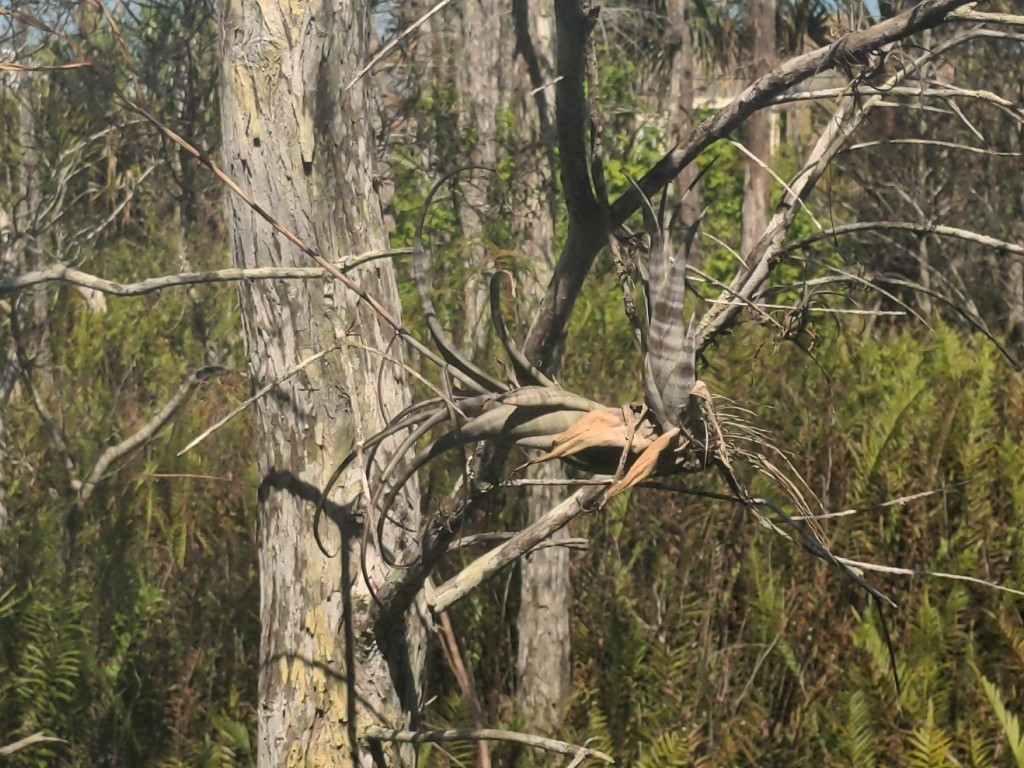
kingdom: Plantae
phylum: Tracheophyta
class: Liliopsida
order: Poales
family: Bromeliaceae
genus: Tillandsia
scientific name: Tillandsia flexuosa
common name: Banded airplant
